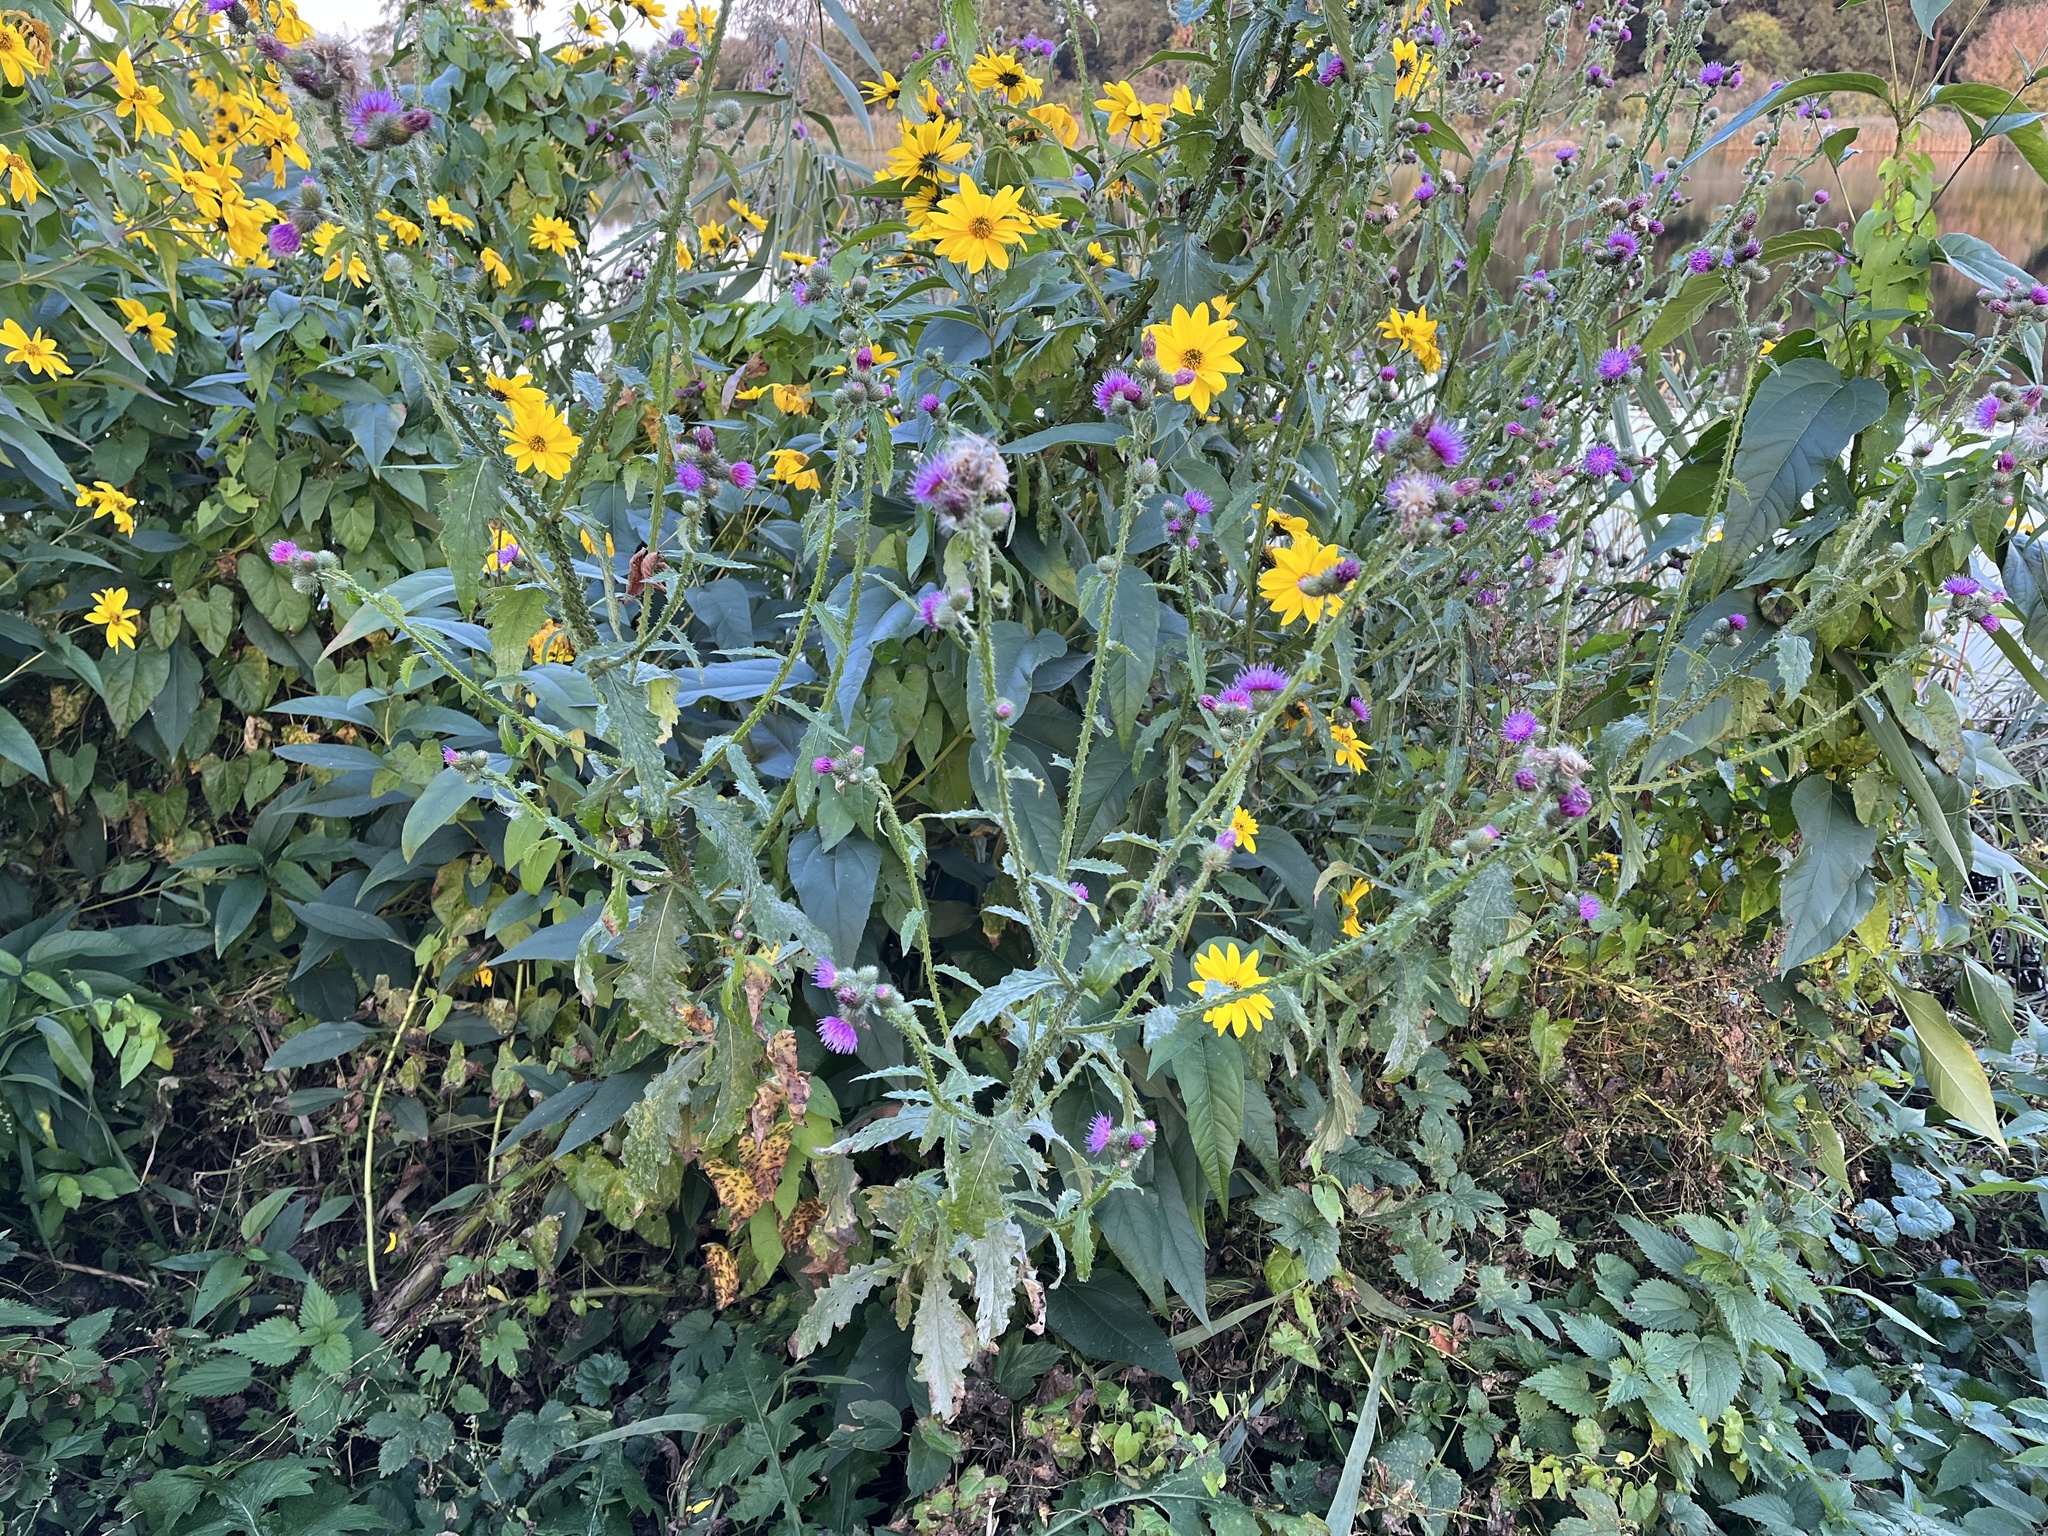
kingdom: Plantae
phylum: Tracheophyta
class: Magnoliopsida
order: Asterales
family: Asteraceae
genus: Carduus
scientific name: Carduus crispus
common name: Welted thistle
